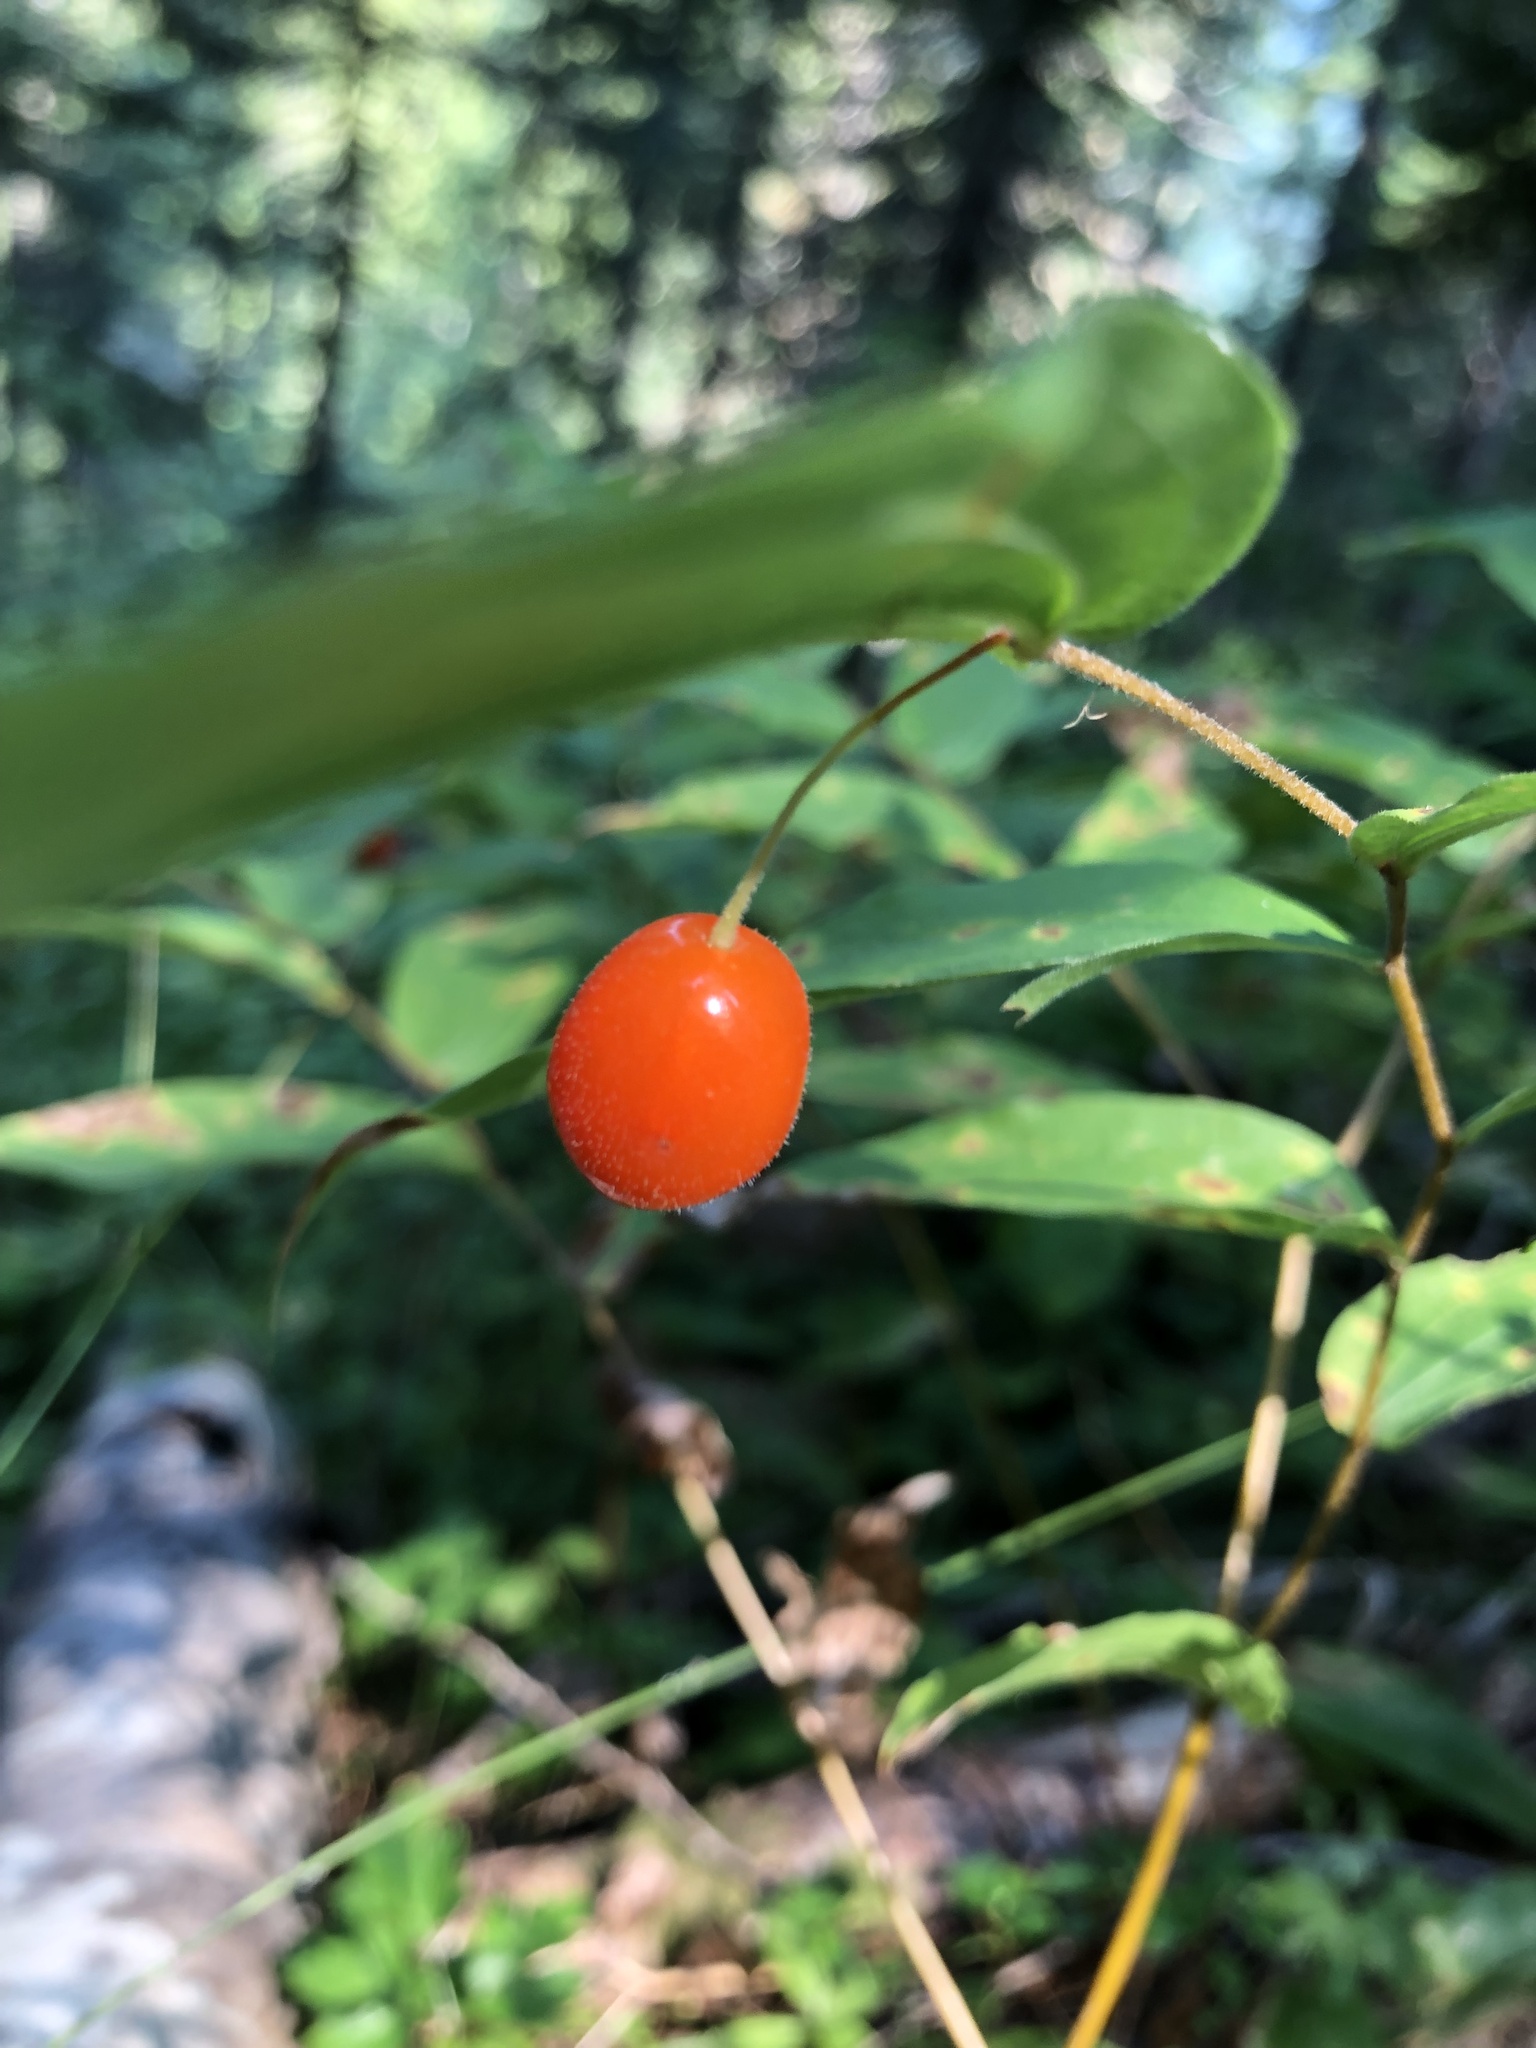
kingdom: Plantae
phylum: Tracheophyta
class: Liliopsida
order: Liliales
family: Liliaceae
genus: Prosartes
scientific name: Prosartes hookeri
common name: Fairy-bells
